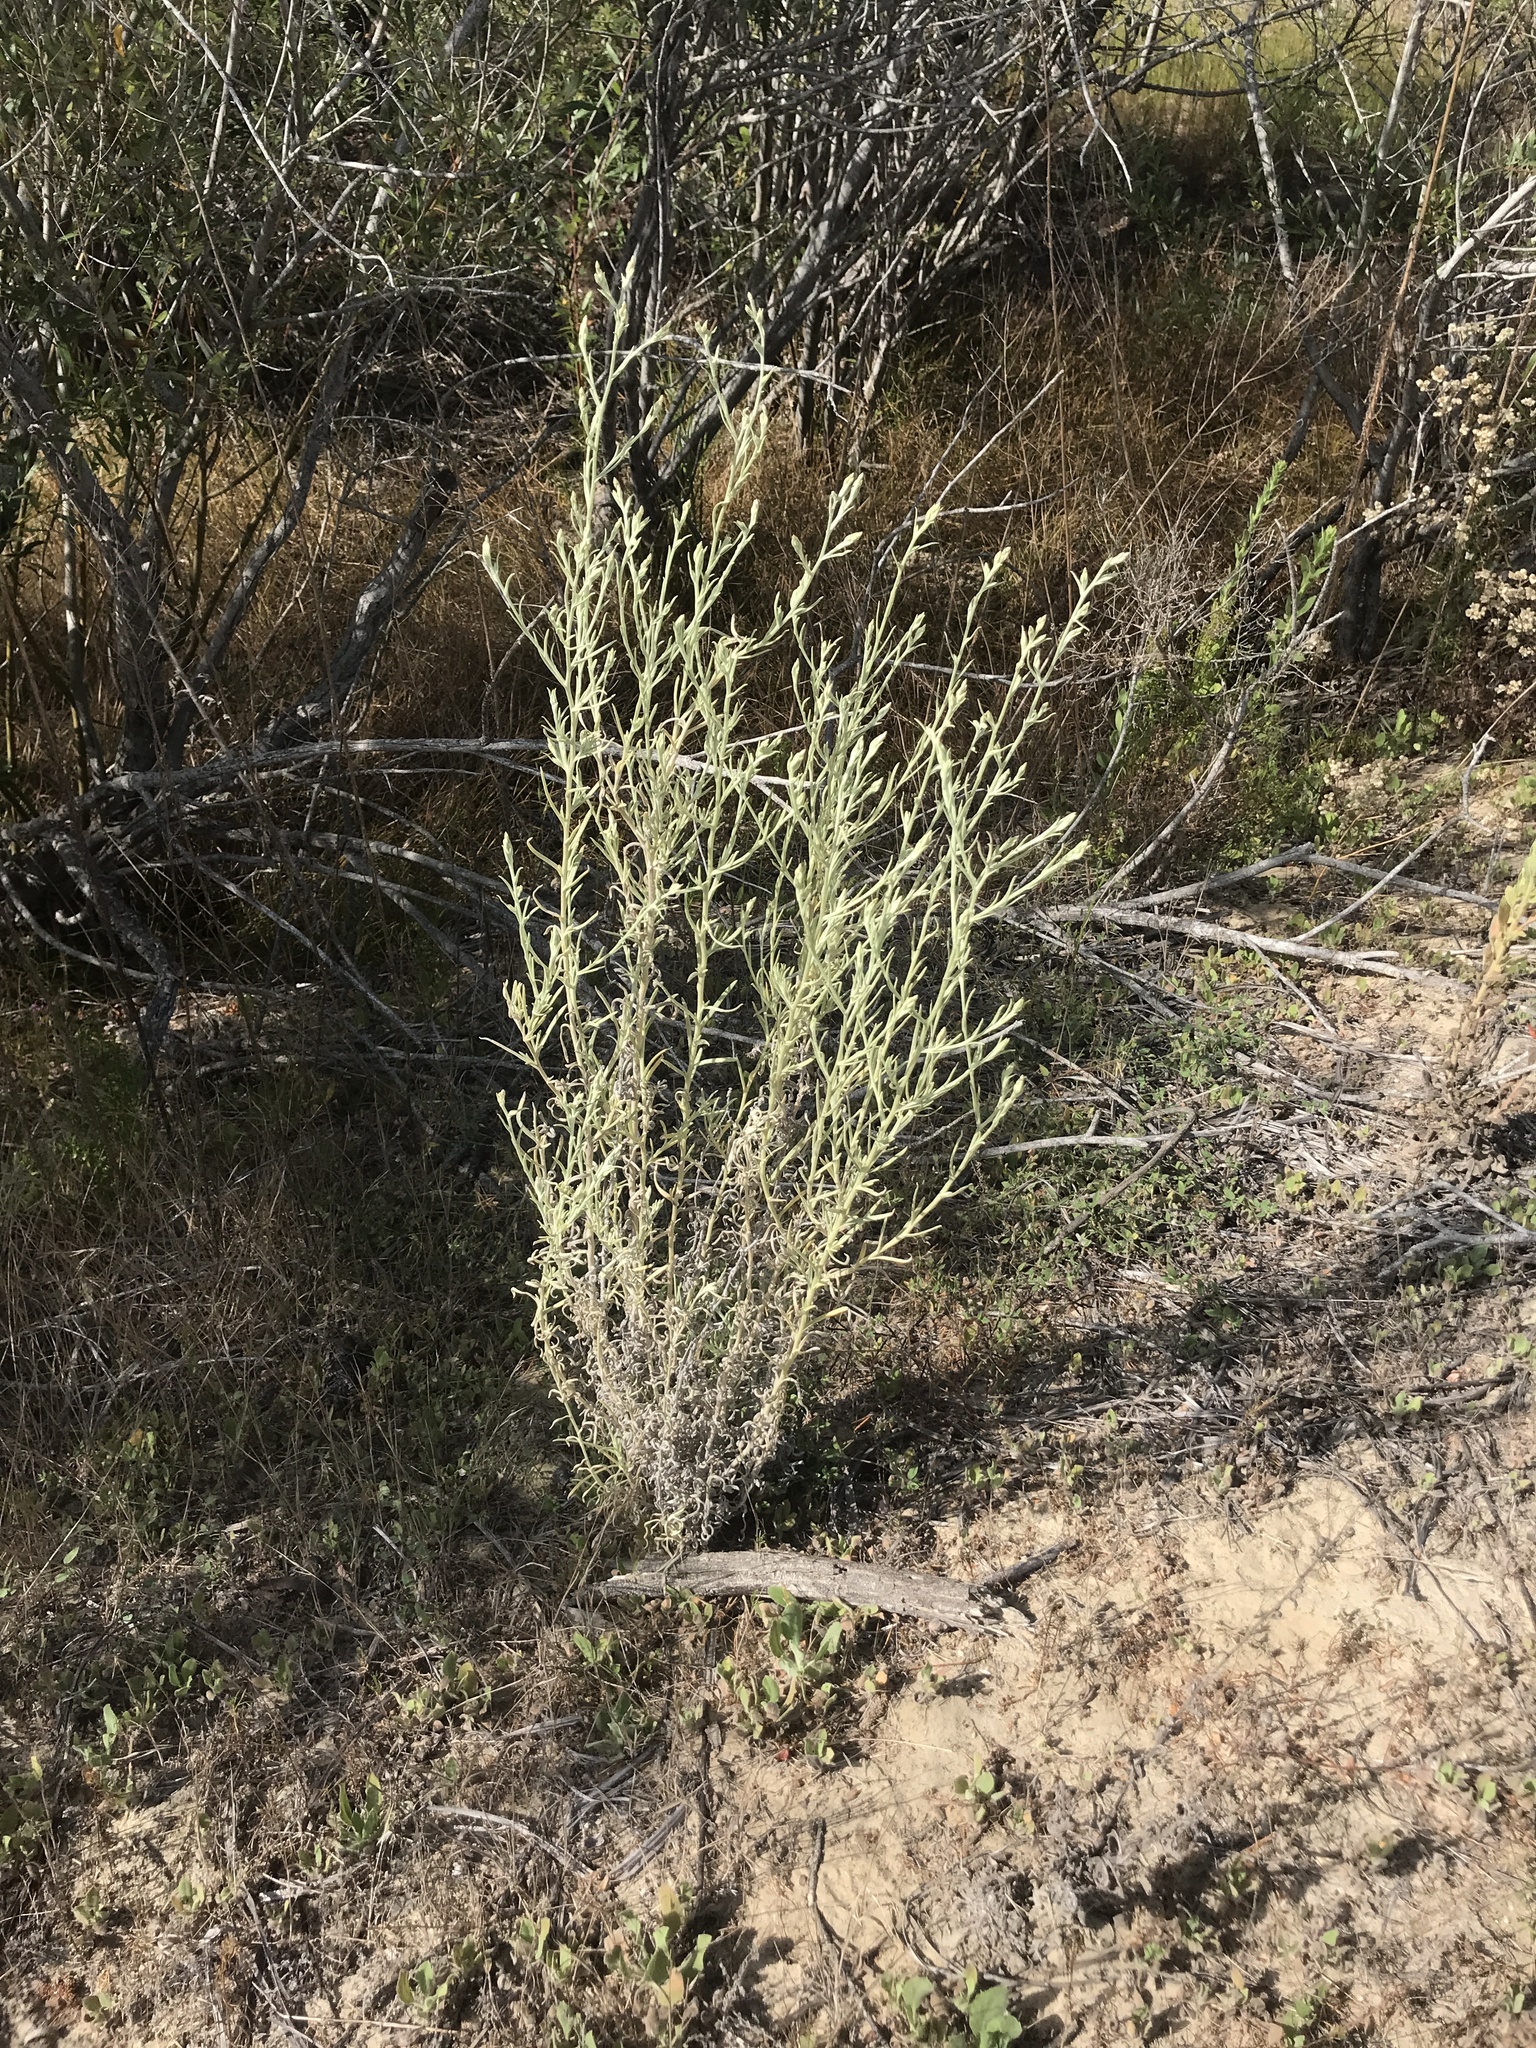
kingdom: Plantae
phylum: Tracheophyta
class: Magnoliopsida
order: Asterales
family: Asteraceae
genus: Pseudognaphalium
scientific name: Pseudognaphalium ramosissimum
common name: Pink rabbit-tobacco
